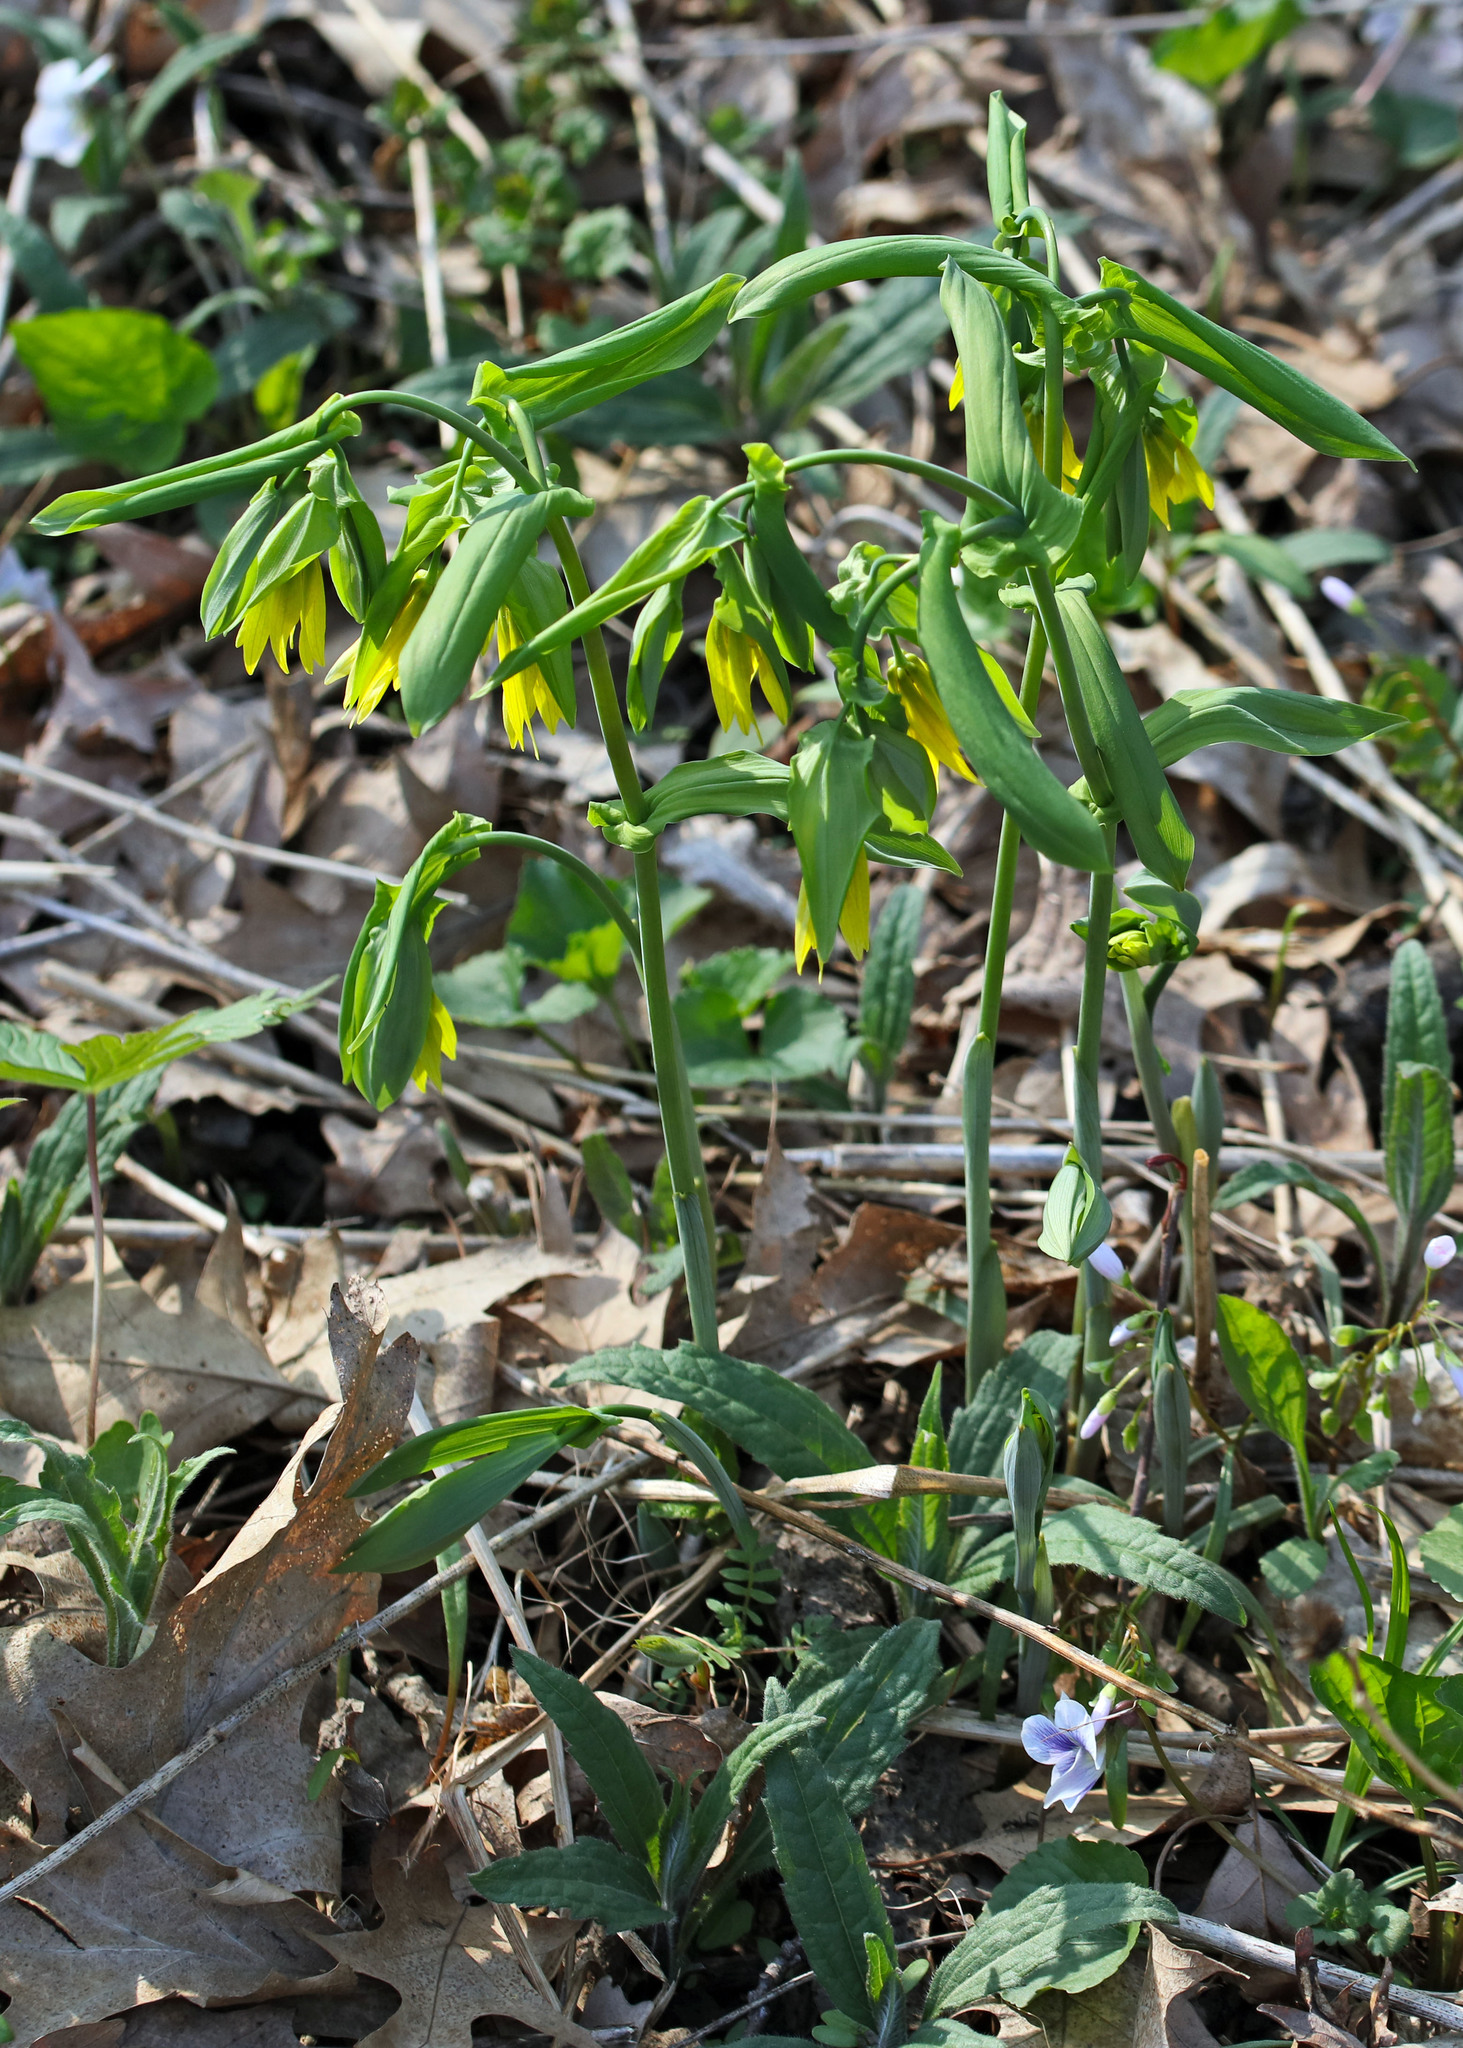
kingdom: Plantae
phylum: Tracheophyta
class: Liliopsida
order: Liliales
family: Colchicaceae
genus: Uvularia
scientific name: Uvularia grandiflora
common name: Bellwort
